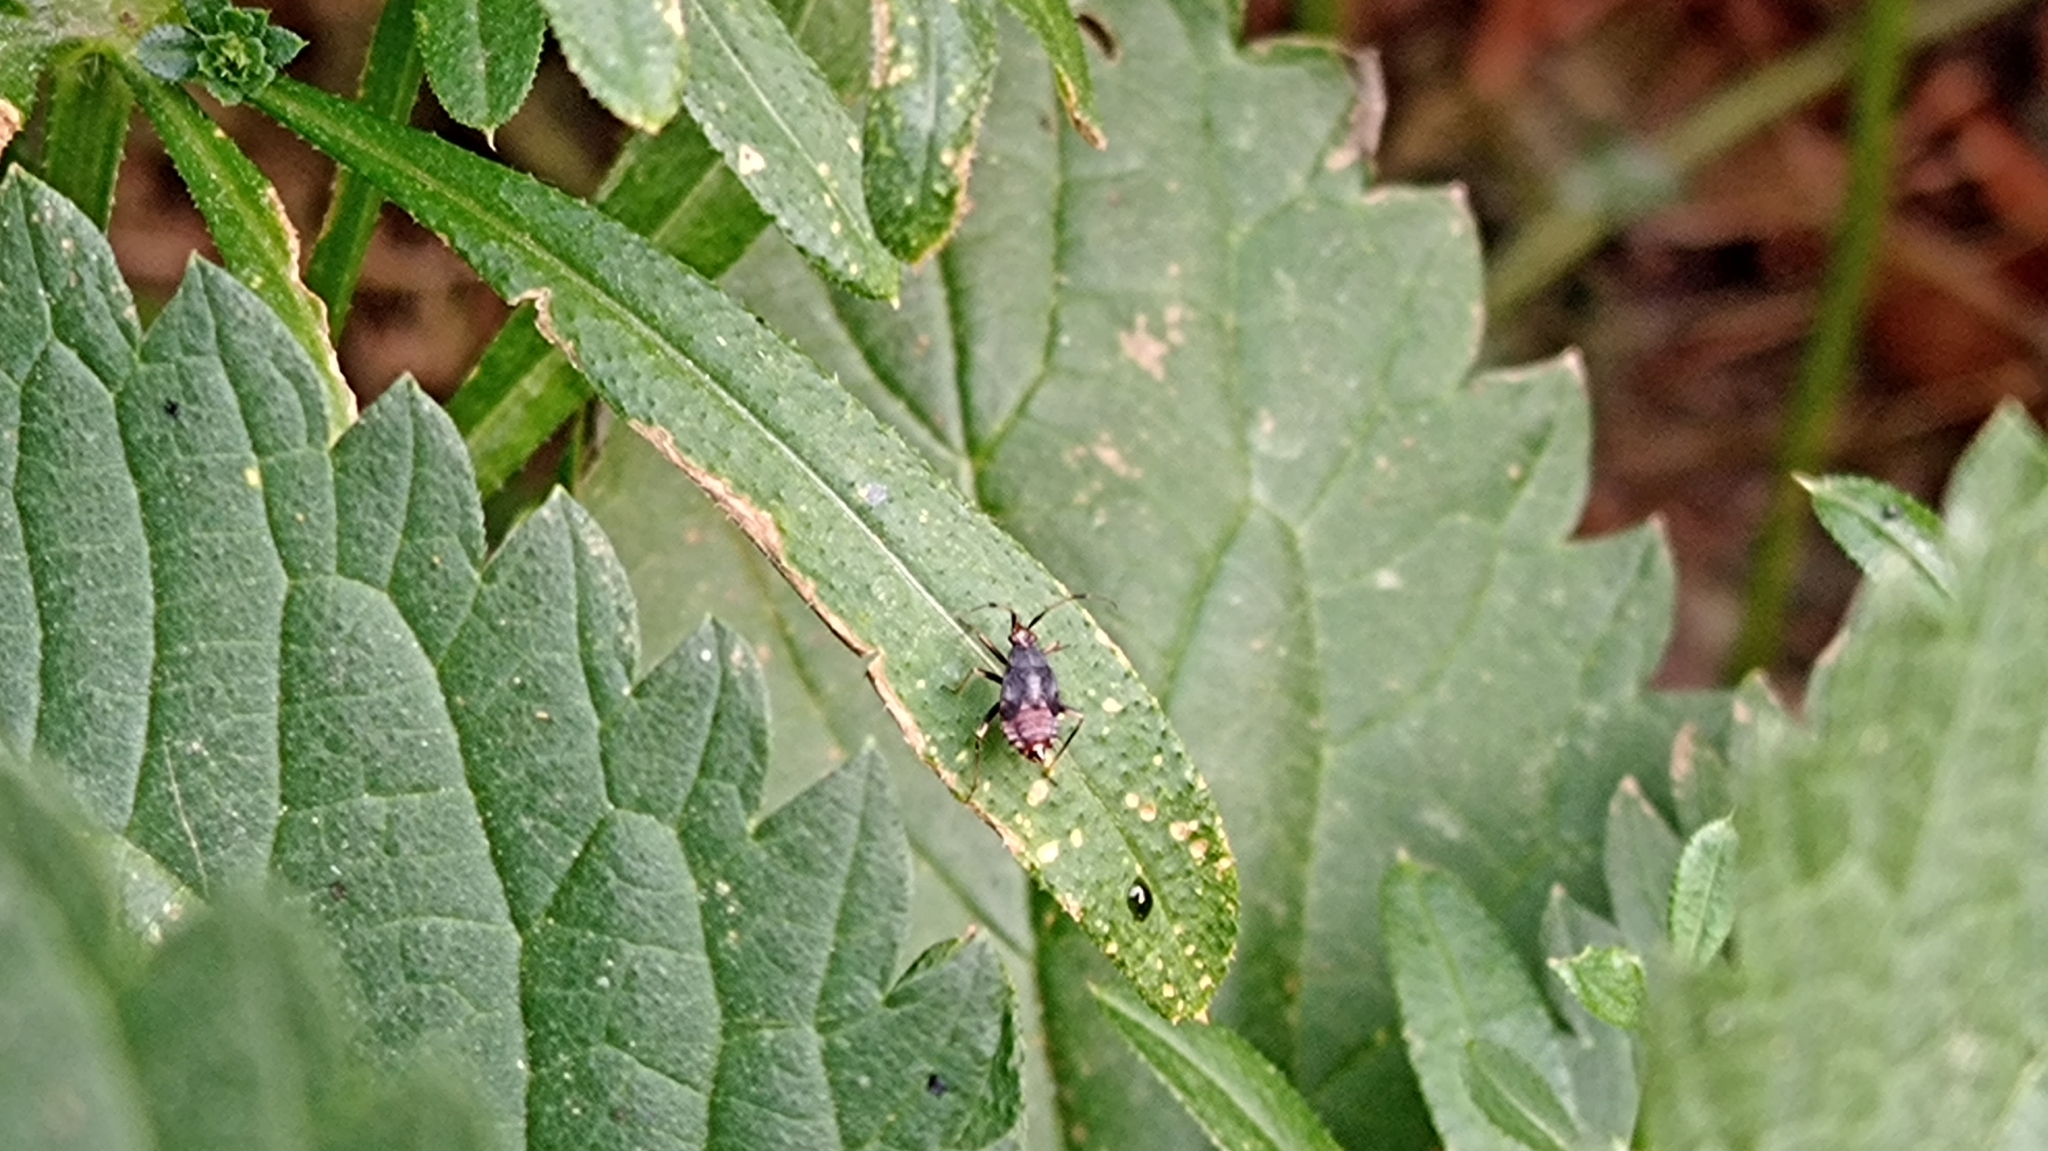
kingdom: Animalia
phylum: Arthropoda
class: Insecta
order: Hemiptera
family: Miridae
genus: Deraeocoris
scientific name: Deraeocoris ruber
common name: Plant bug
